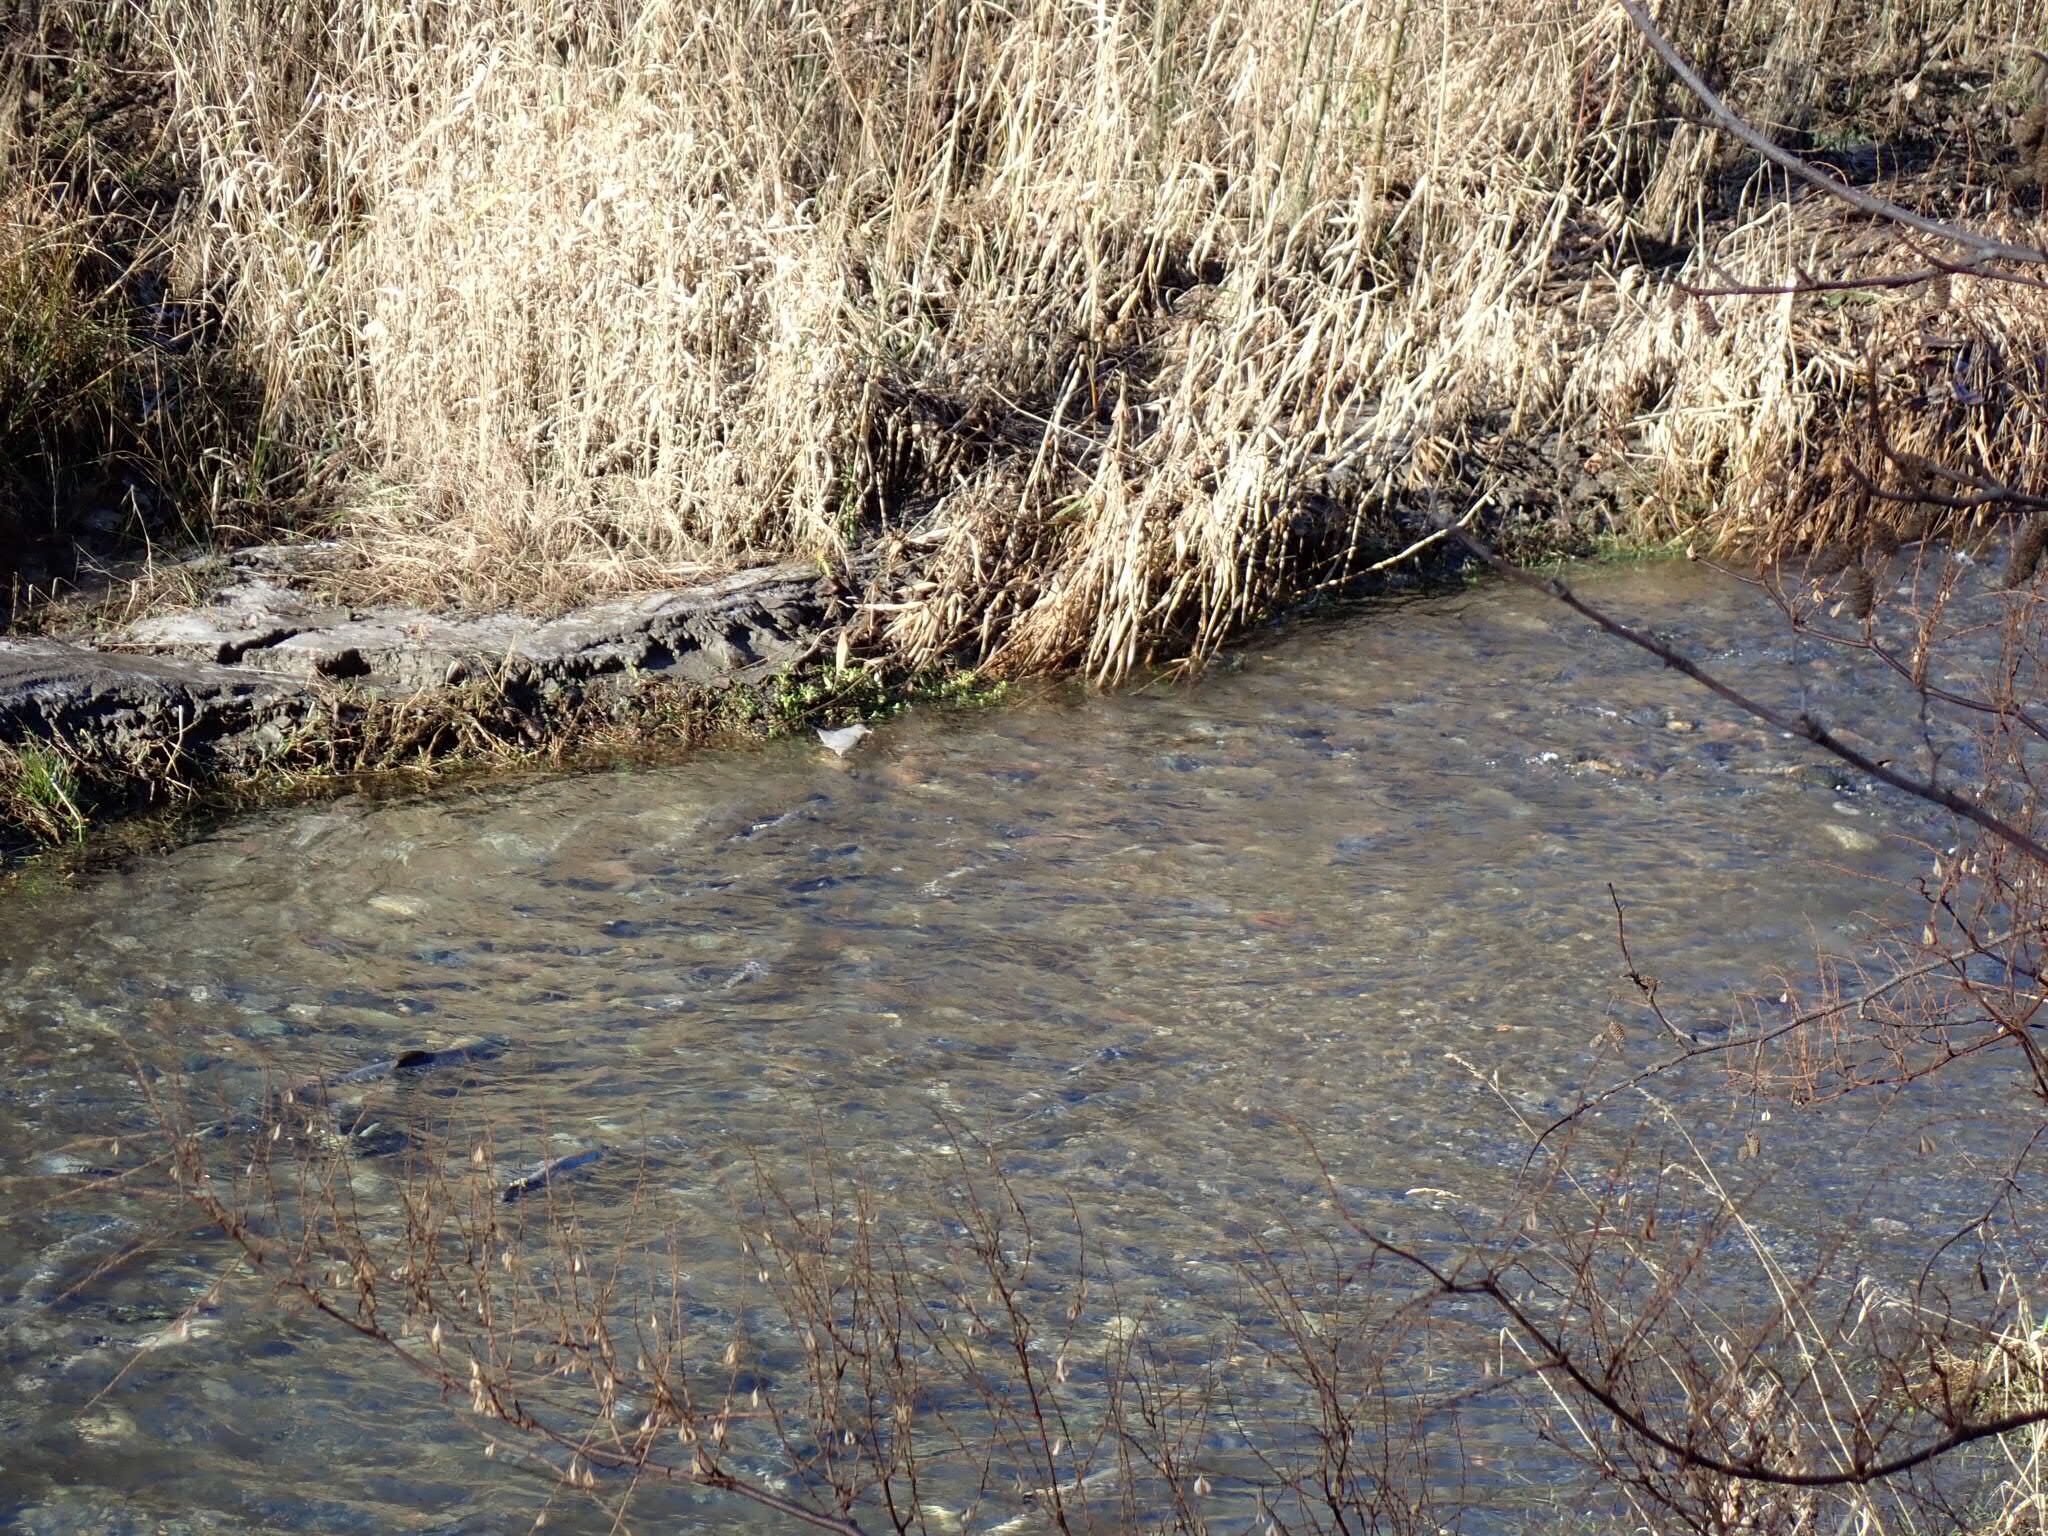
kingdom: Animalia
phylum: Chordata
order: Salmoniformes
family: Salmonidae
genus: Oncorhynchus
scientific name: Oncorhynchus keta
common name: Chum salmon
